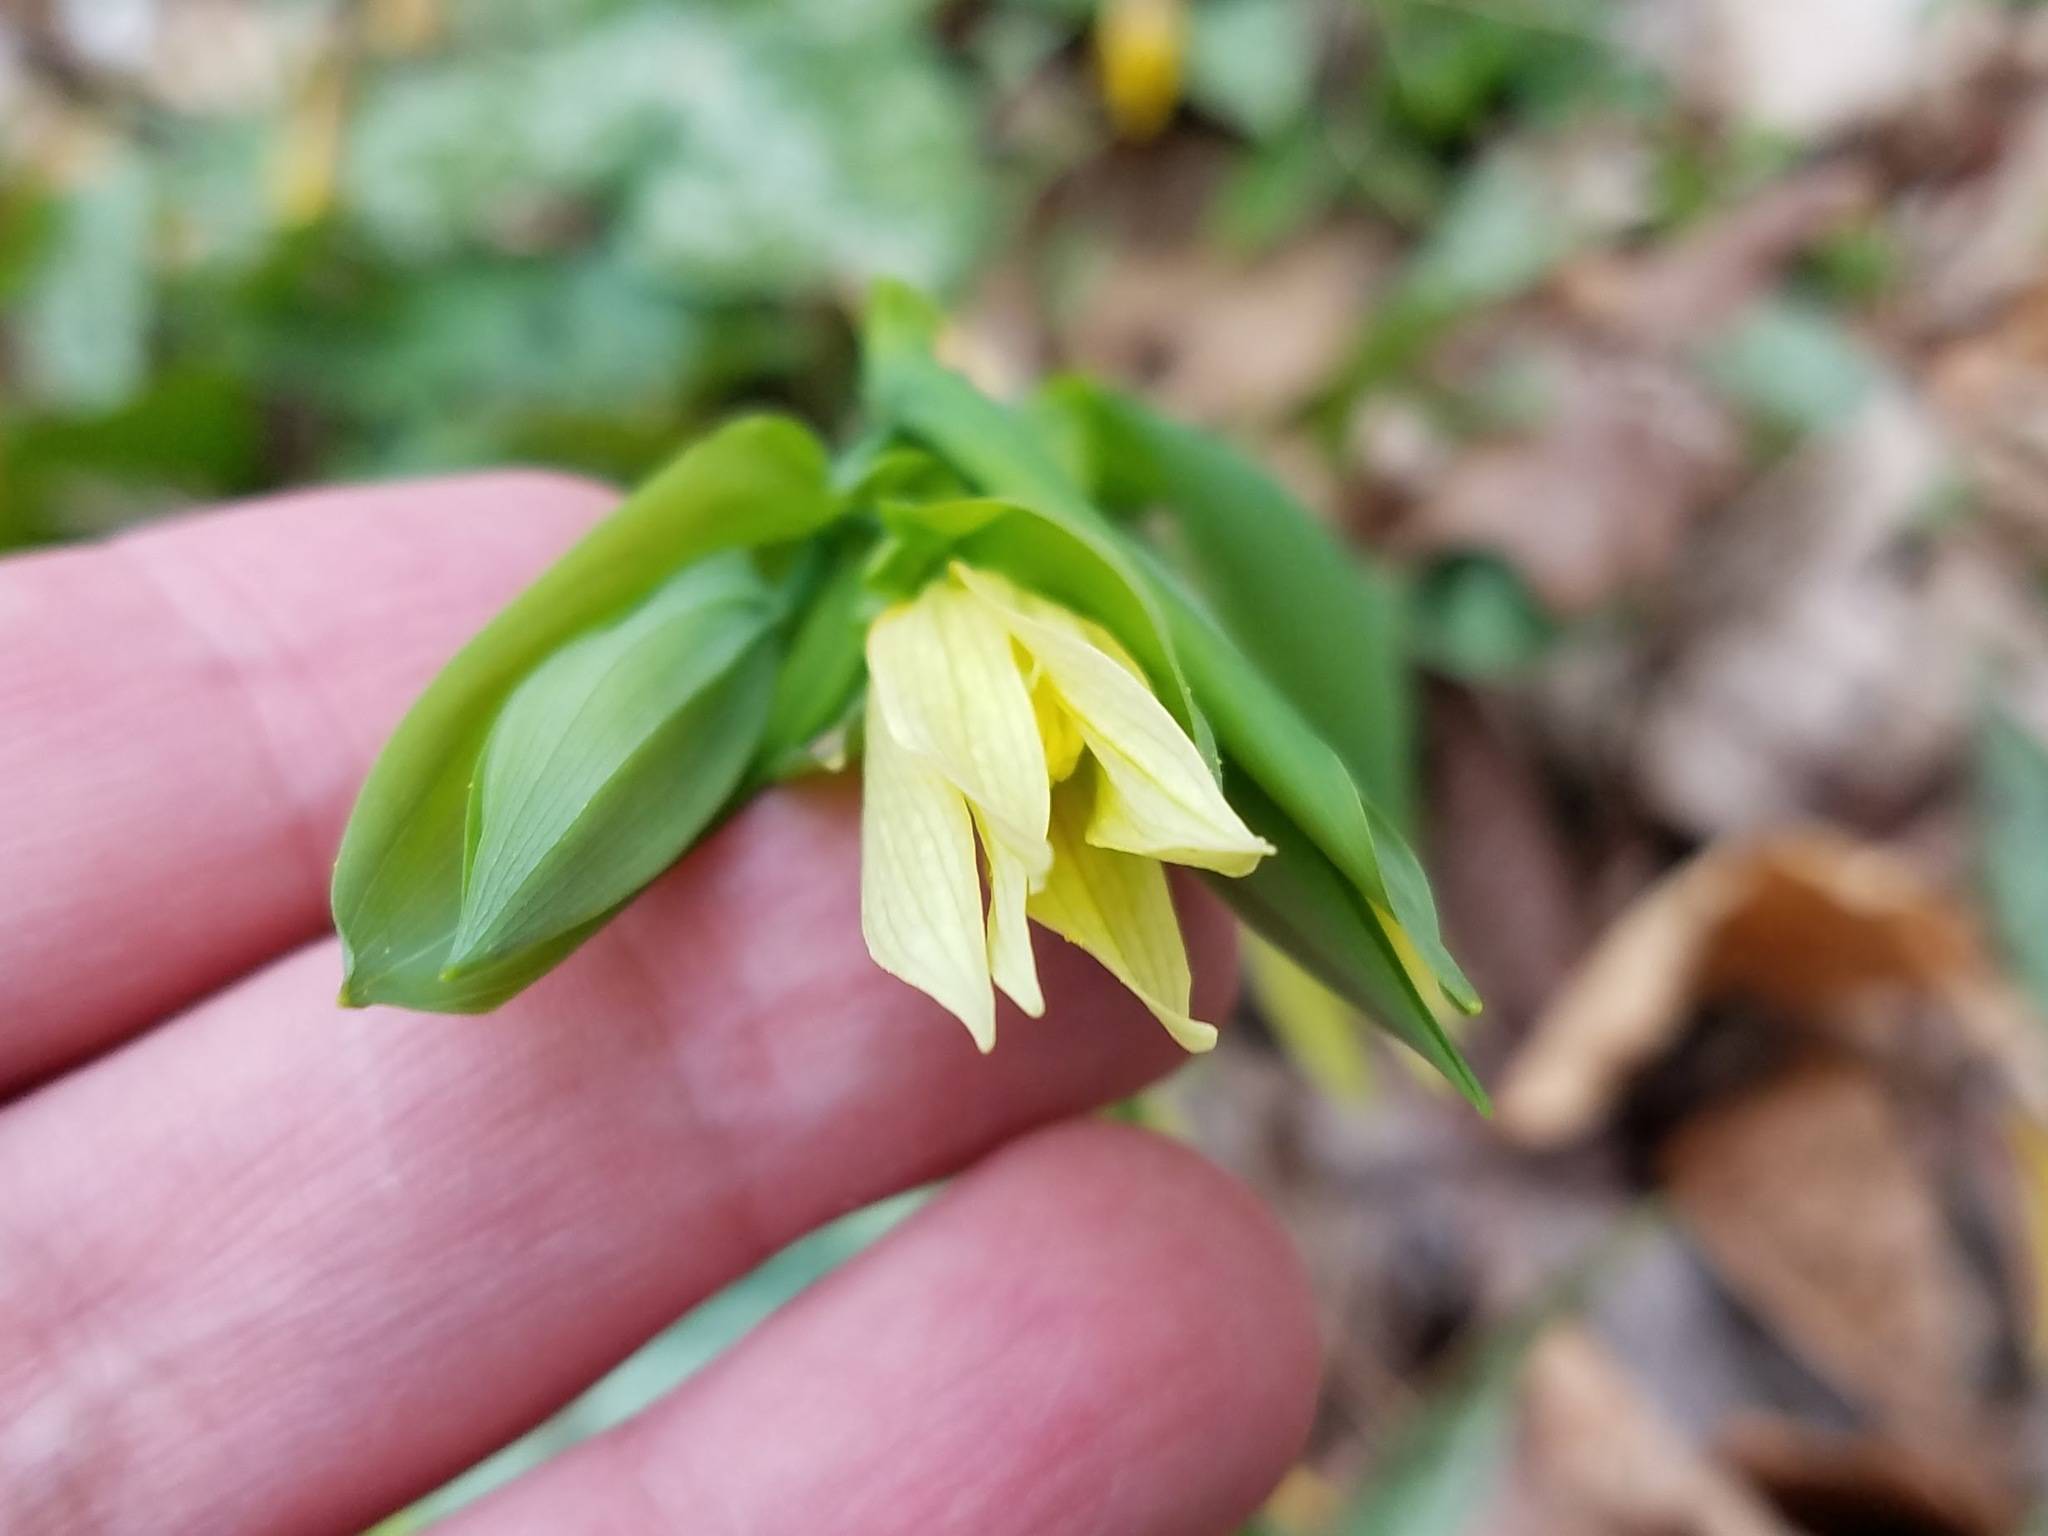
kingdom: Plantae
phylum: Tracheophyta
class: Liliopsida
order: Liliales
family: Colchicaceae
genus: Uvularia
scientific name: Uvularia grandiflora
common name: Bellwort
